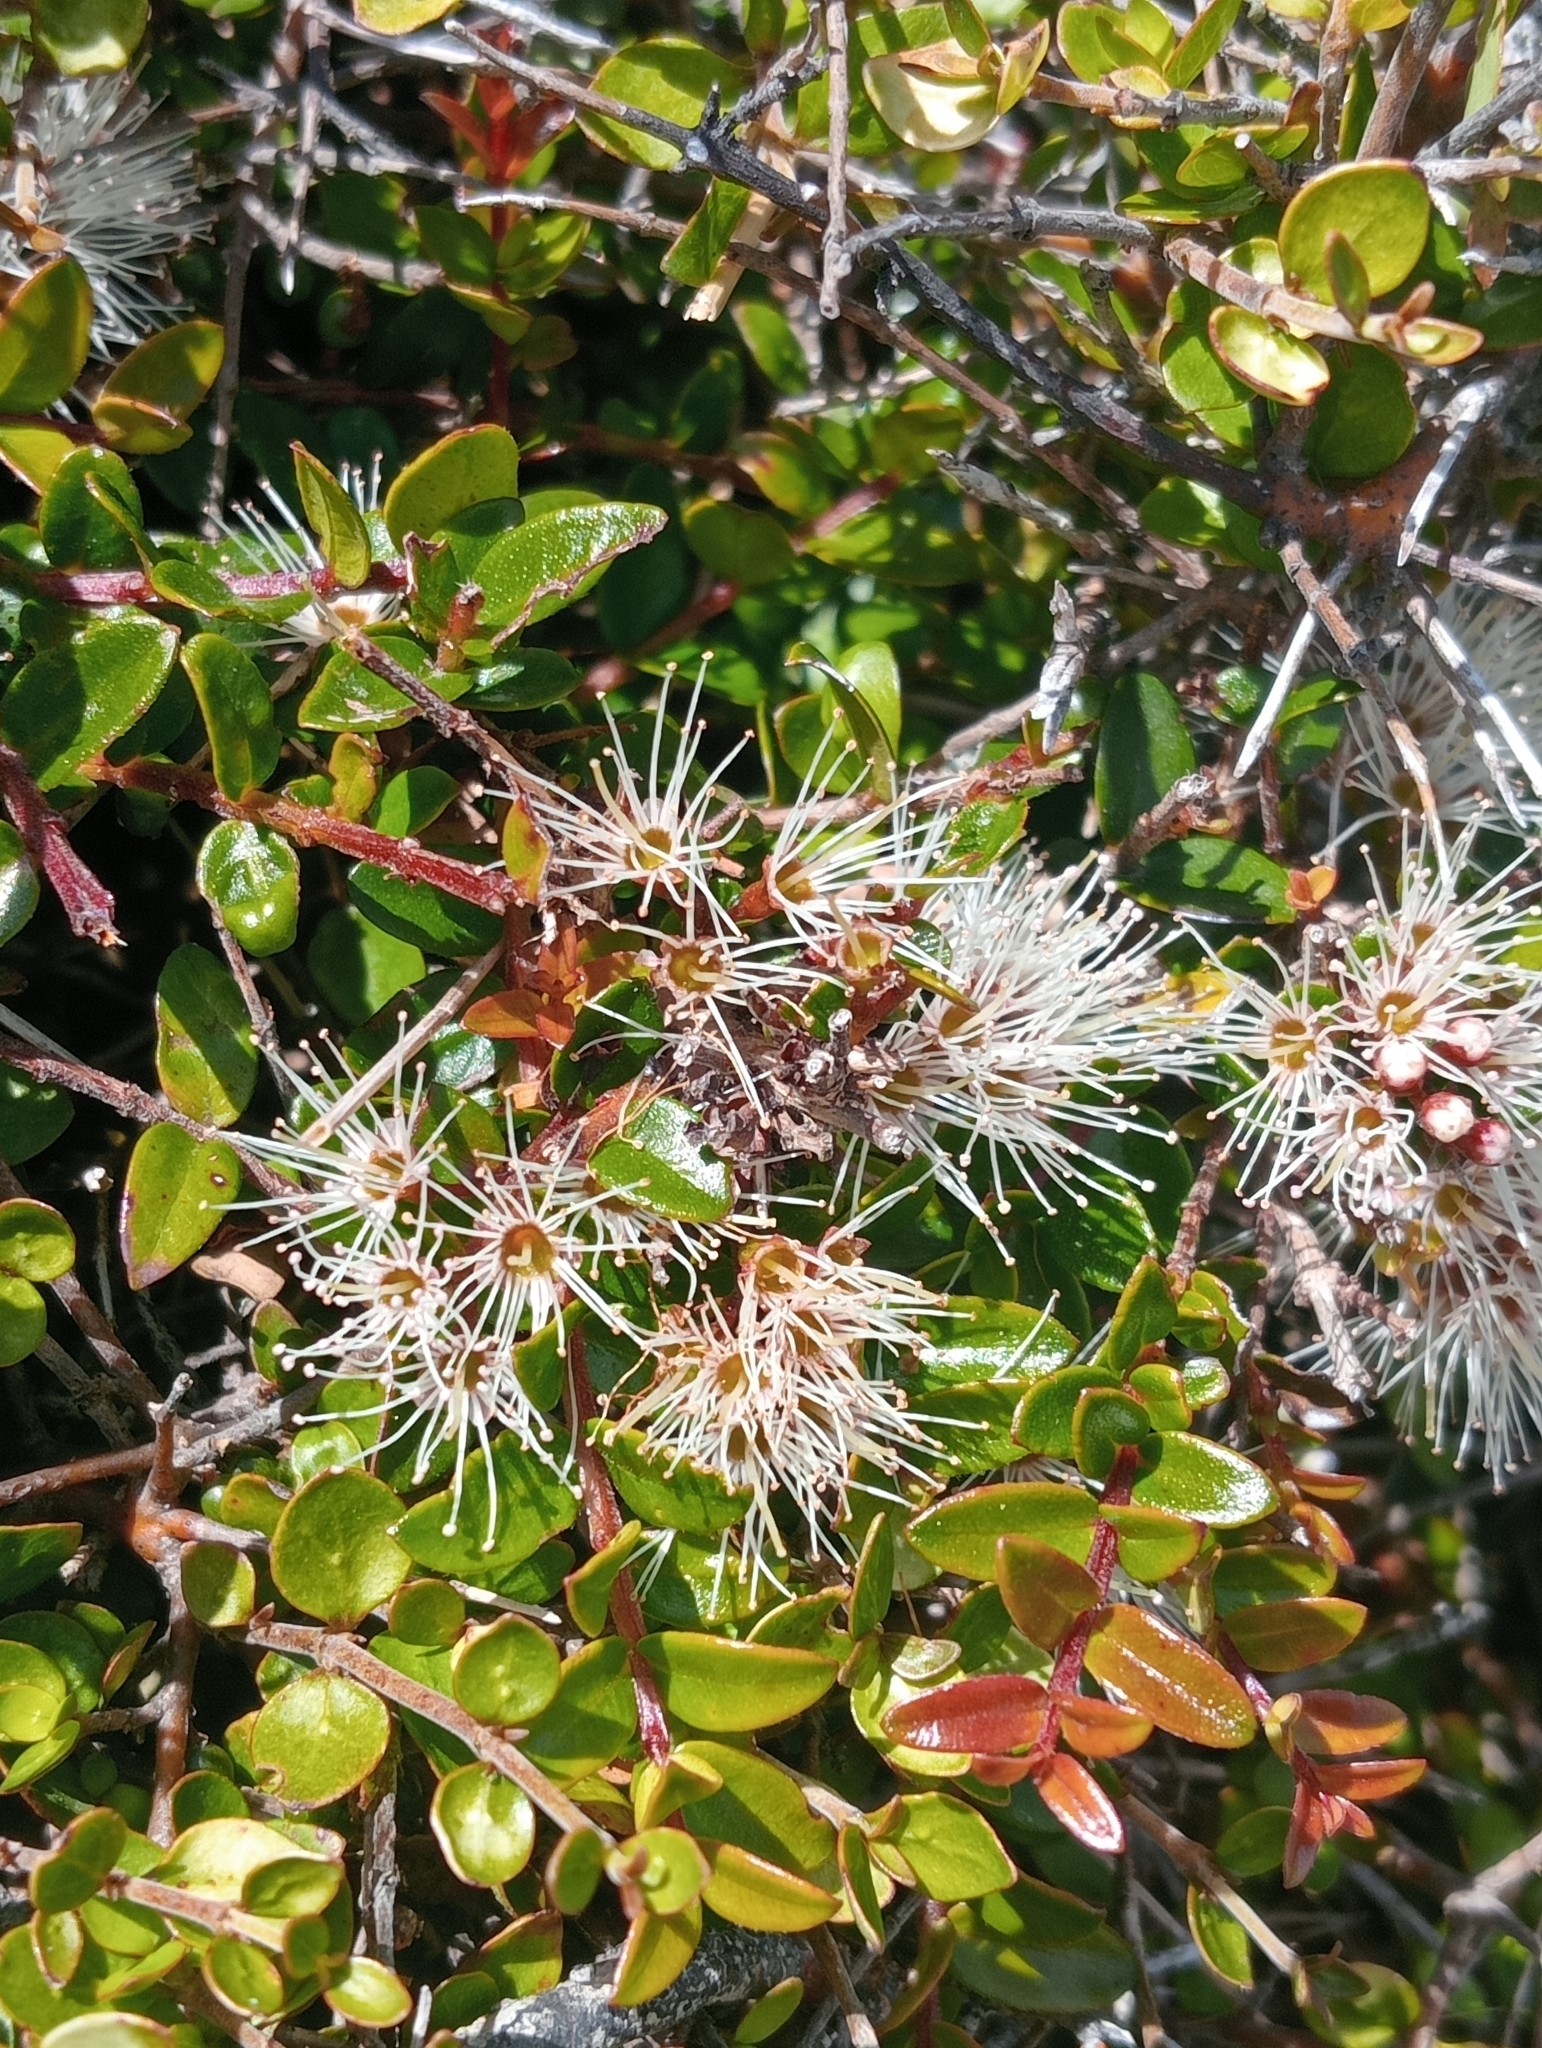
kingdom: Plantae
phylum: Tracheophyta
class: Magnoliopsida
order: Myrtales
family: Myrtaceae
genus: Metrosideros
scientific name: Metrosideros diffusa
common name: Small ratavine
